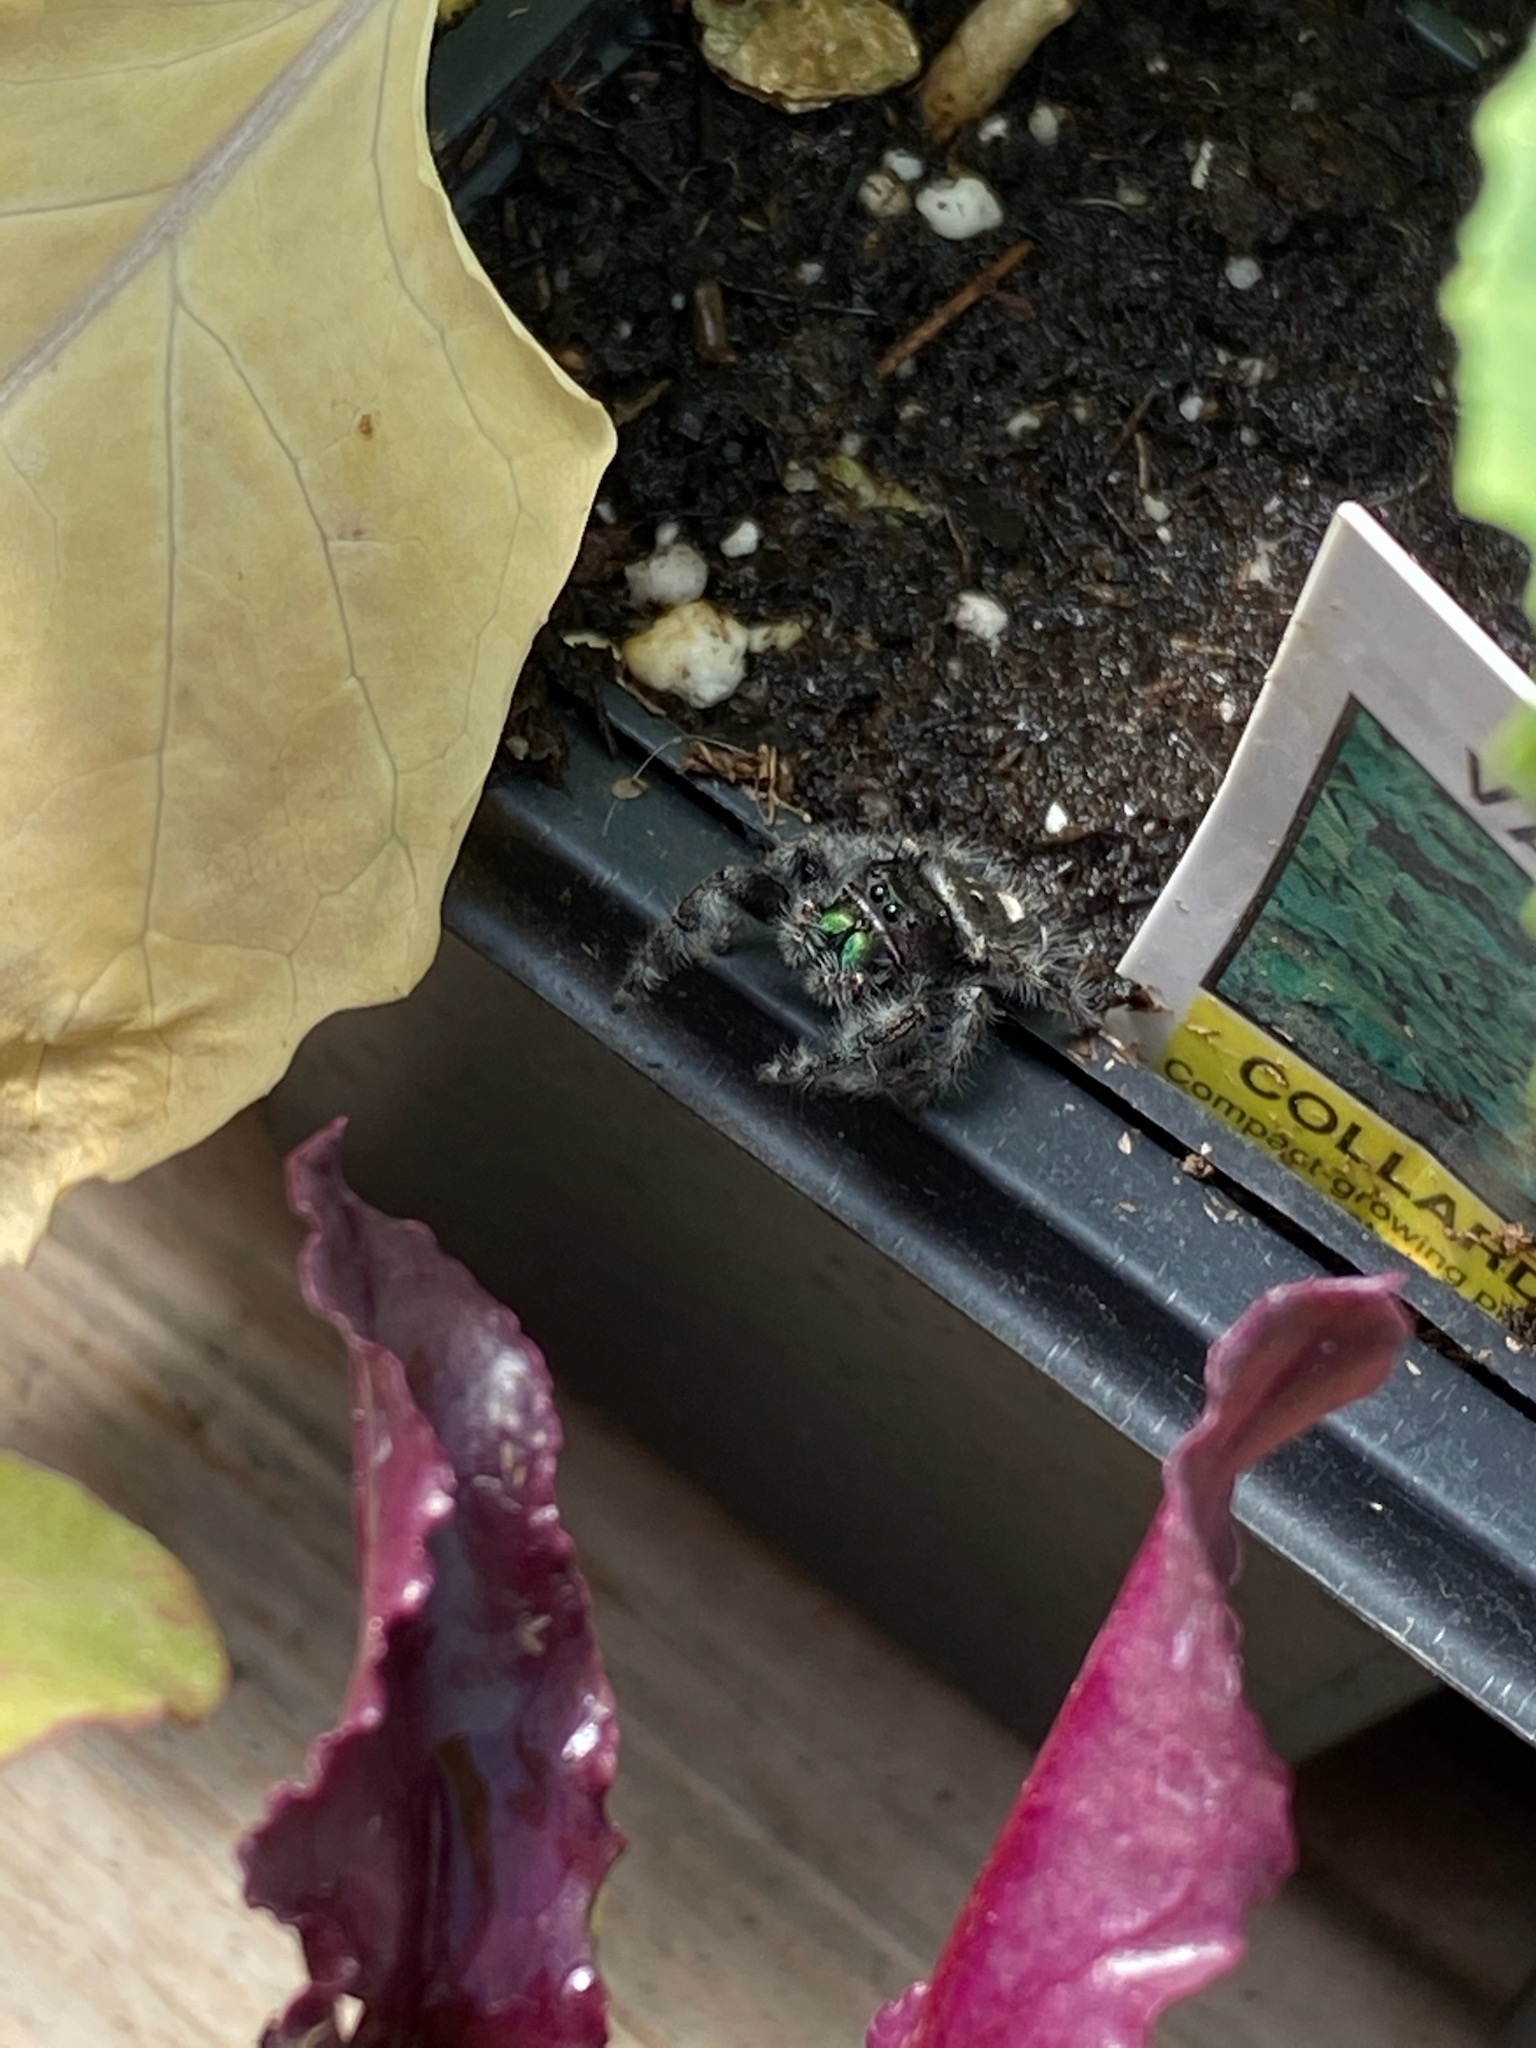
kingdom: Animalia
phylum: Arthropoda
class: Arachnida
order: Araneae
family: Salticidae
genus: Phidippus
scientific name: Phidippus audax
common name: Bold jumper
